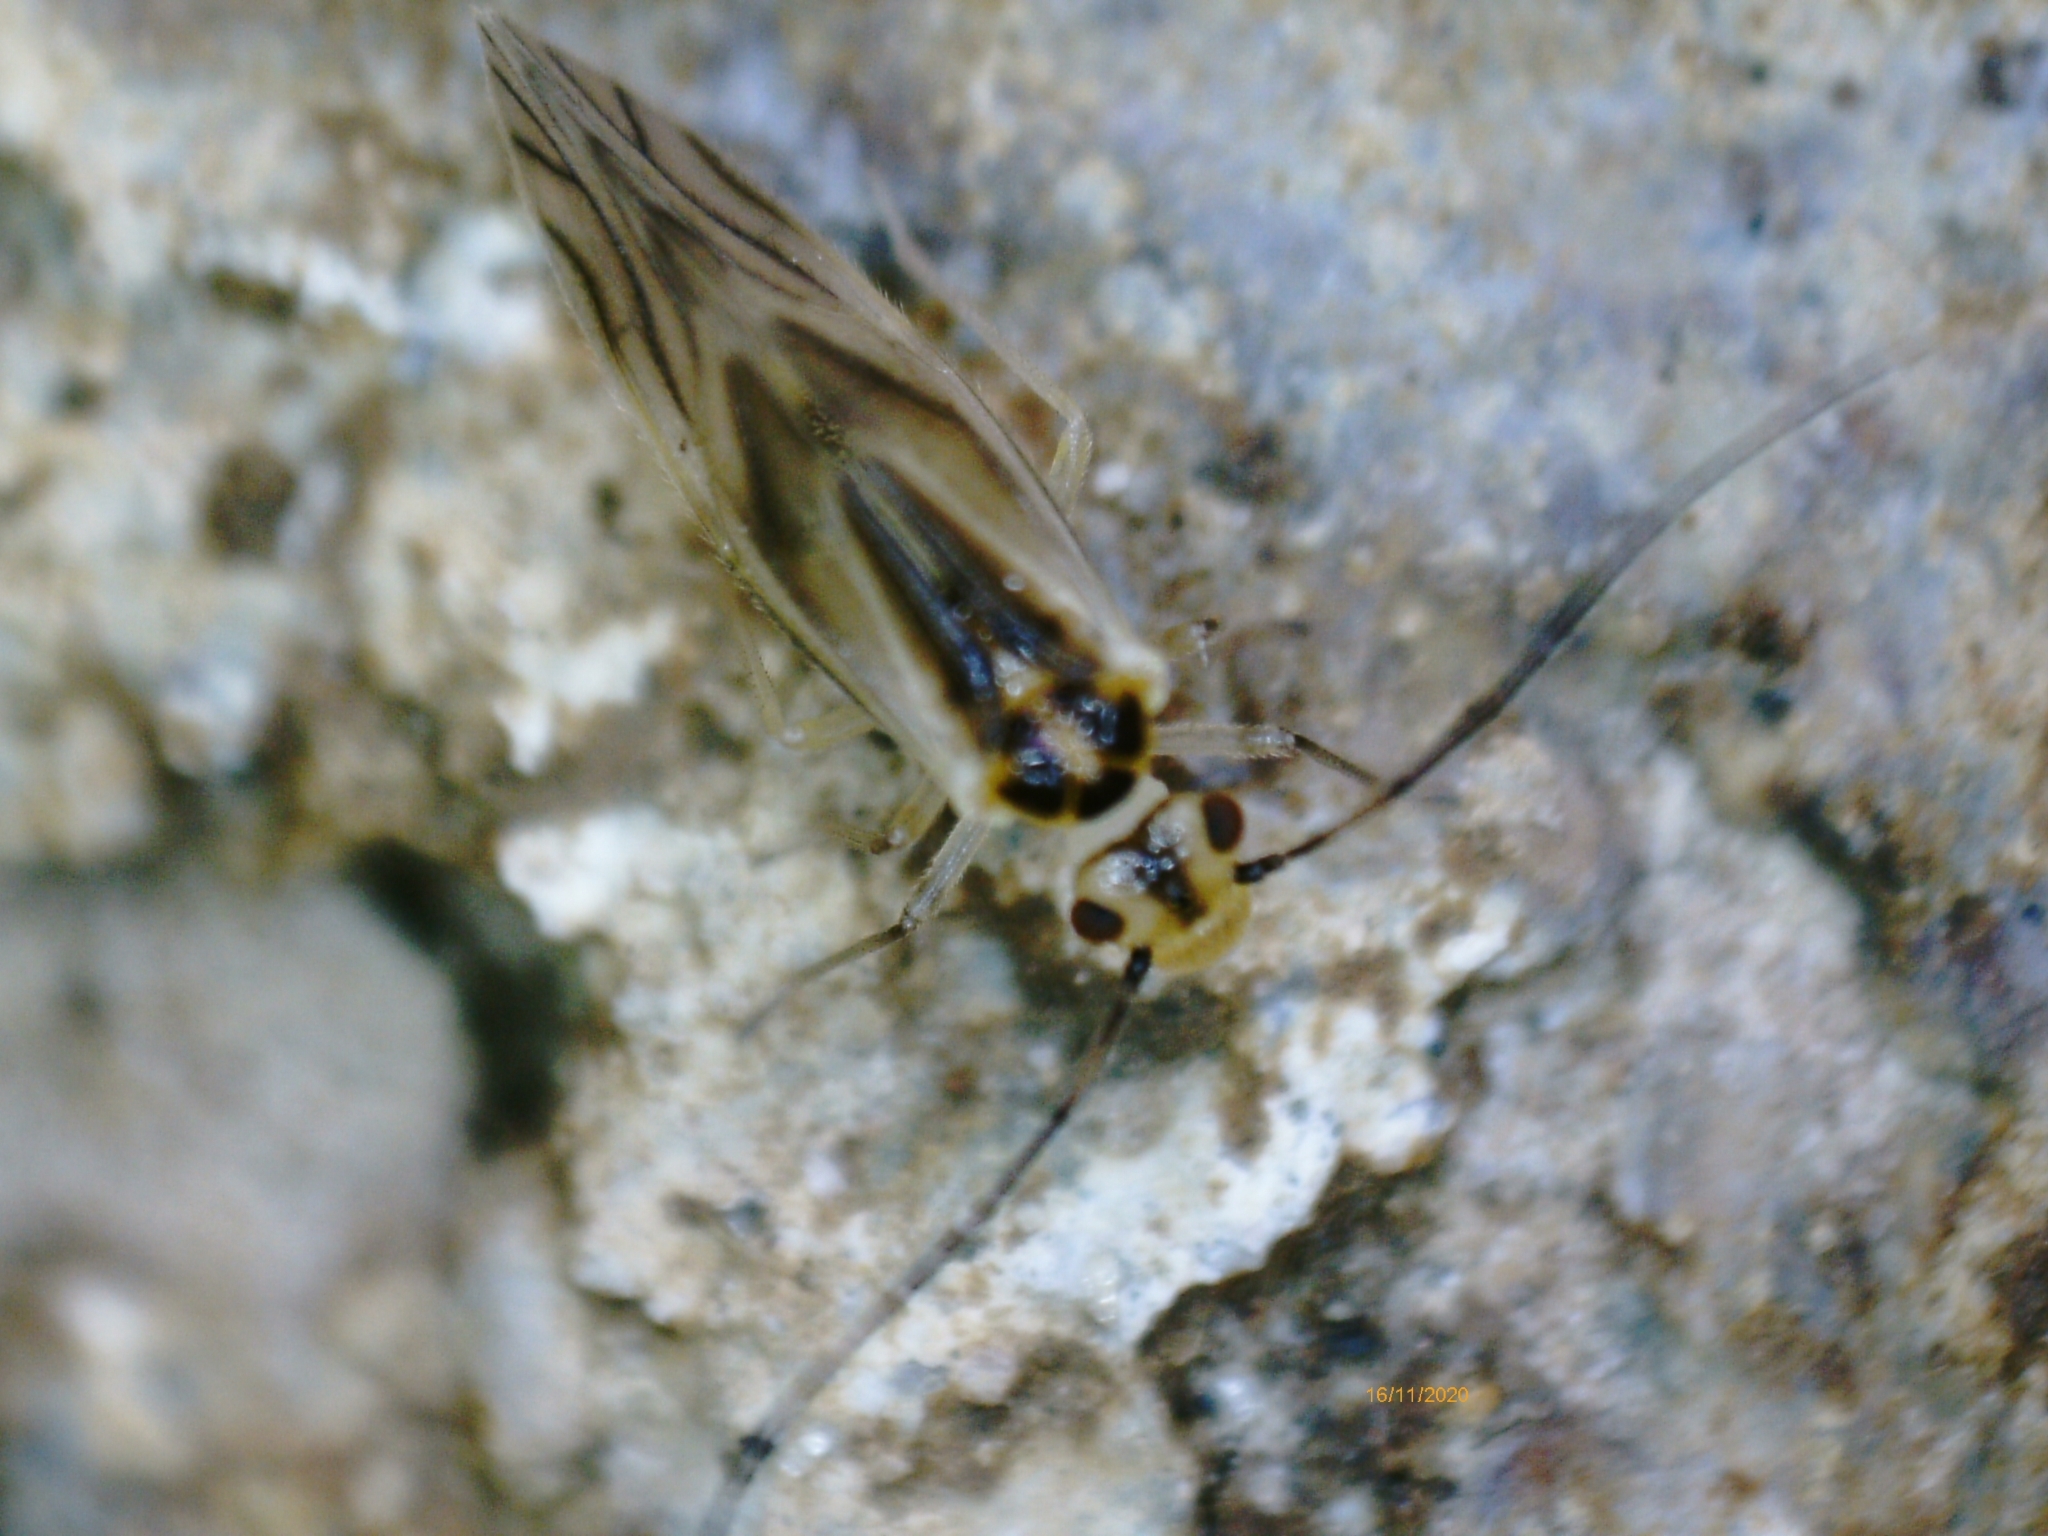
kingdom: Animalia
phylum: Arthropoda
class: Insecta
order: Psocodea
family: Caeciliusidae
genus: Valenzuela
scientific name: Valenzuela flavidus
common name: Yellow barklouse
